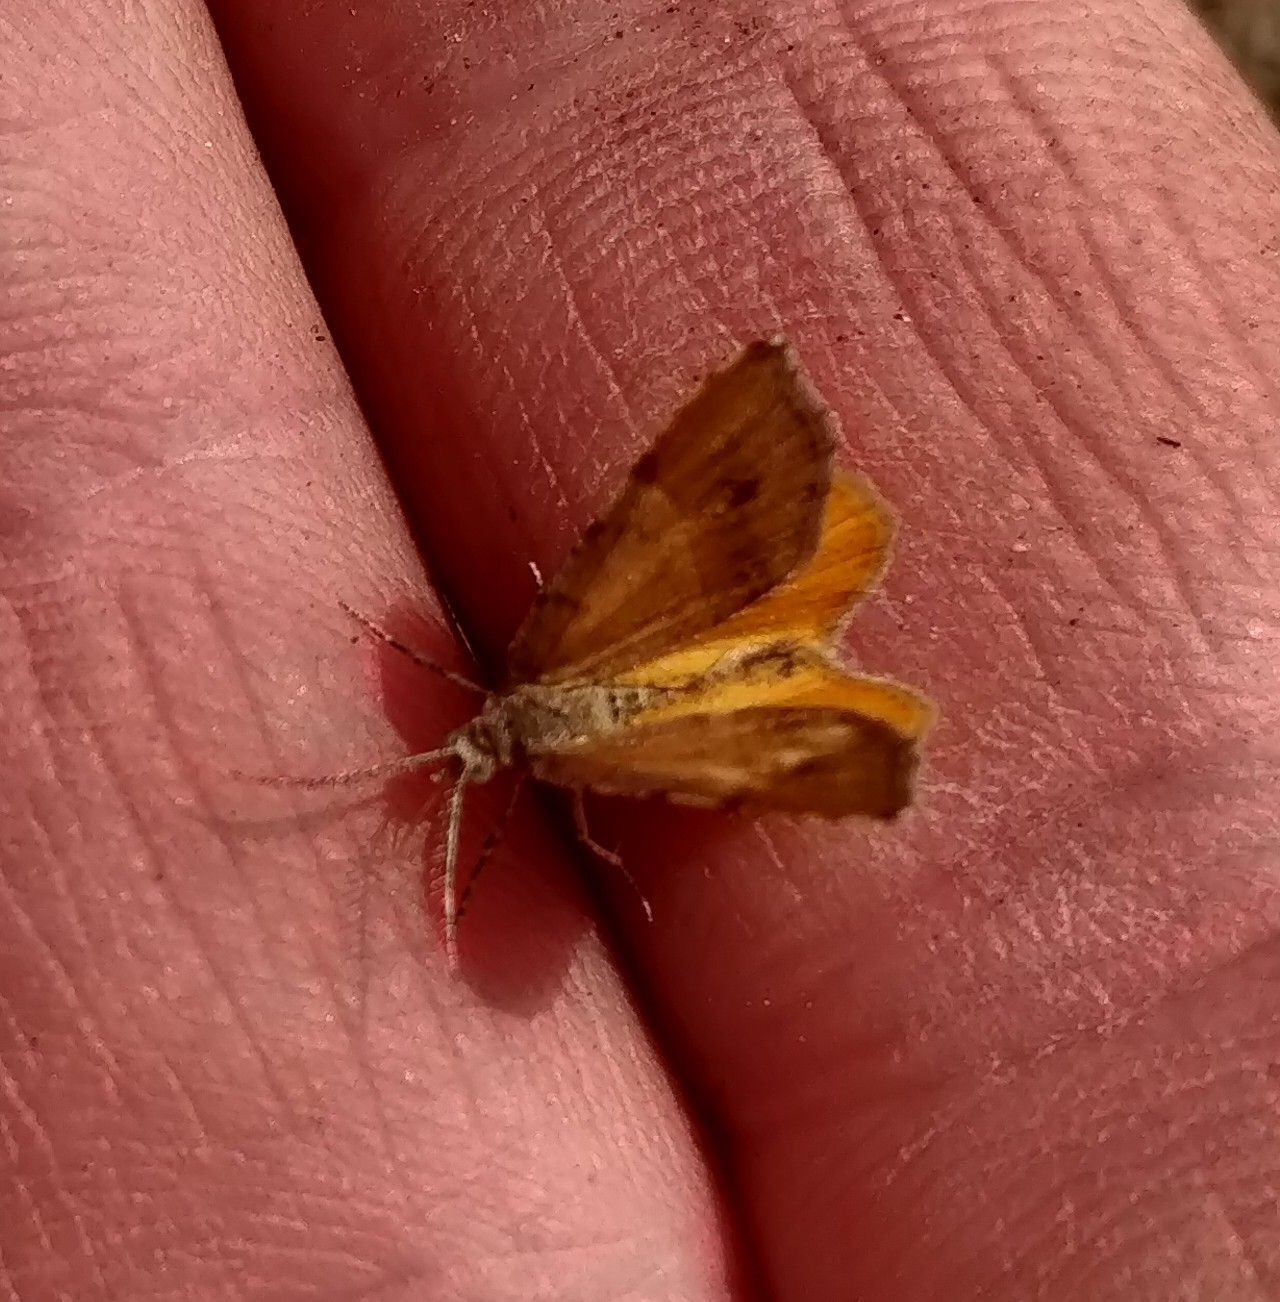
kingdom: Animalia
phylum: Arthropoda
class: Insecta
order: Lepidoptera
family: Geometridae
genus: Mellilla
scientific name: Mellilla xanthometata
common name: Orange wing moth
